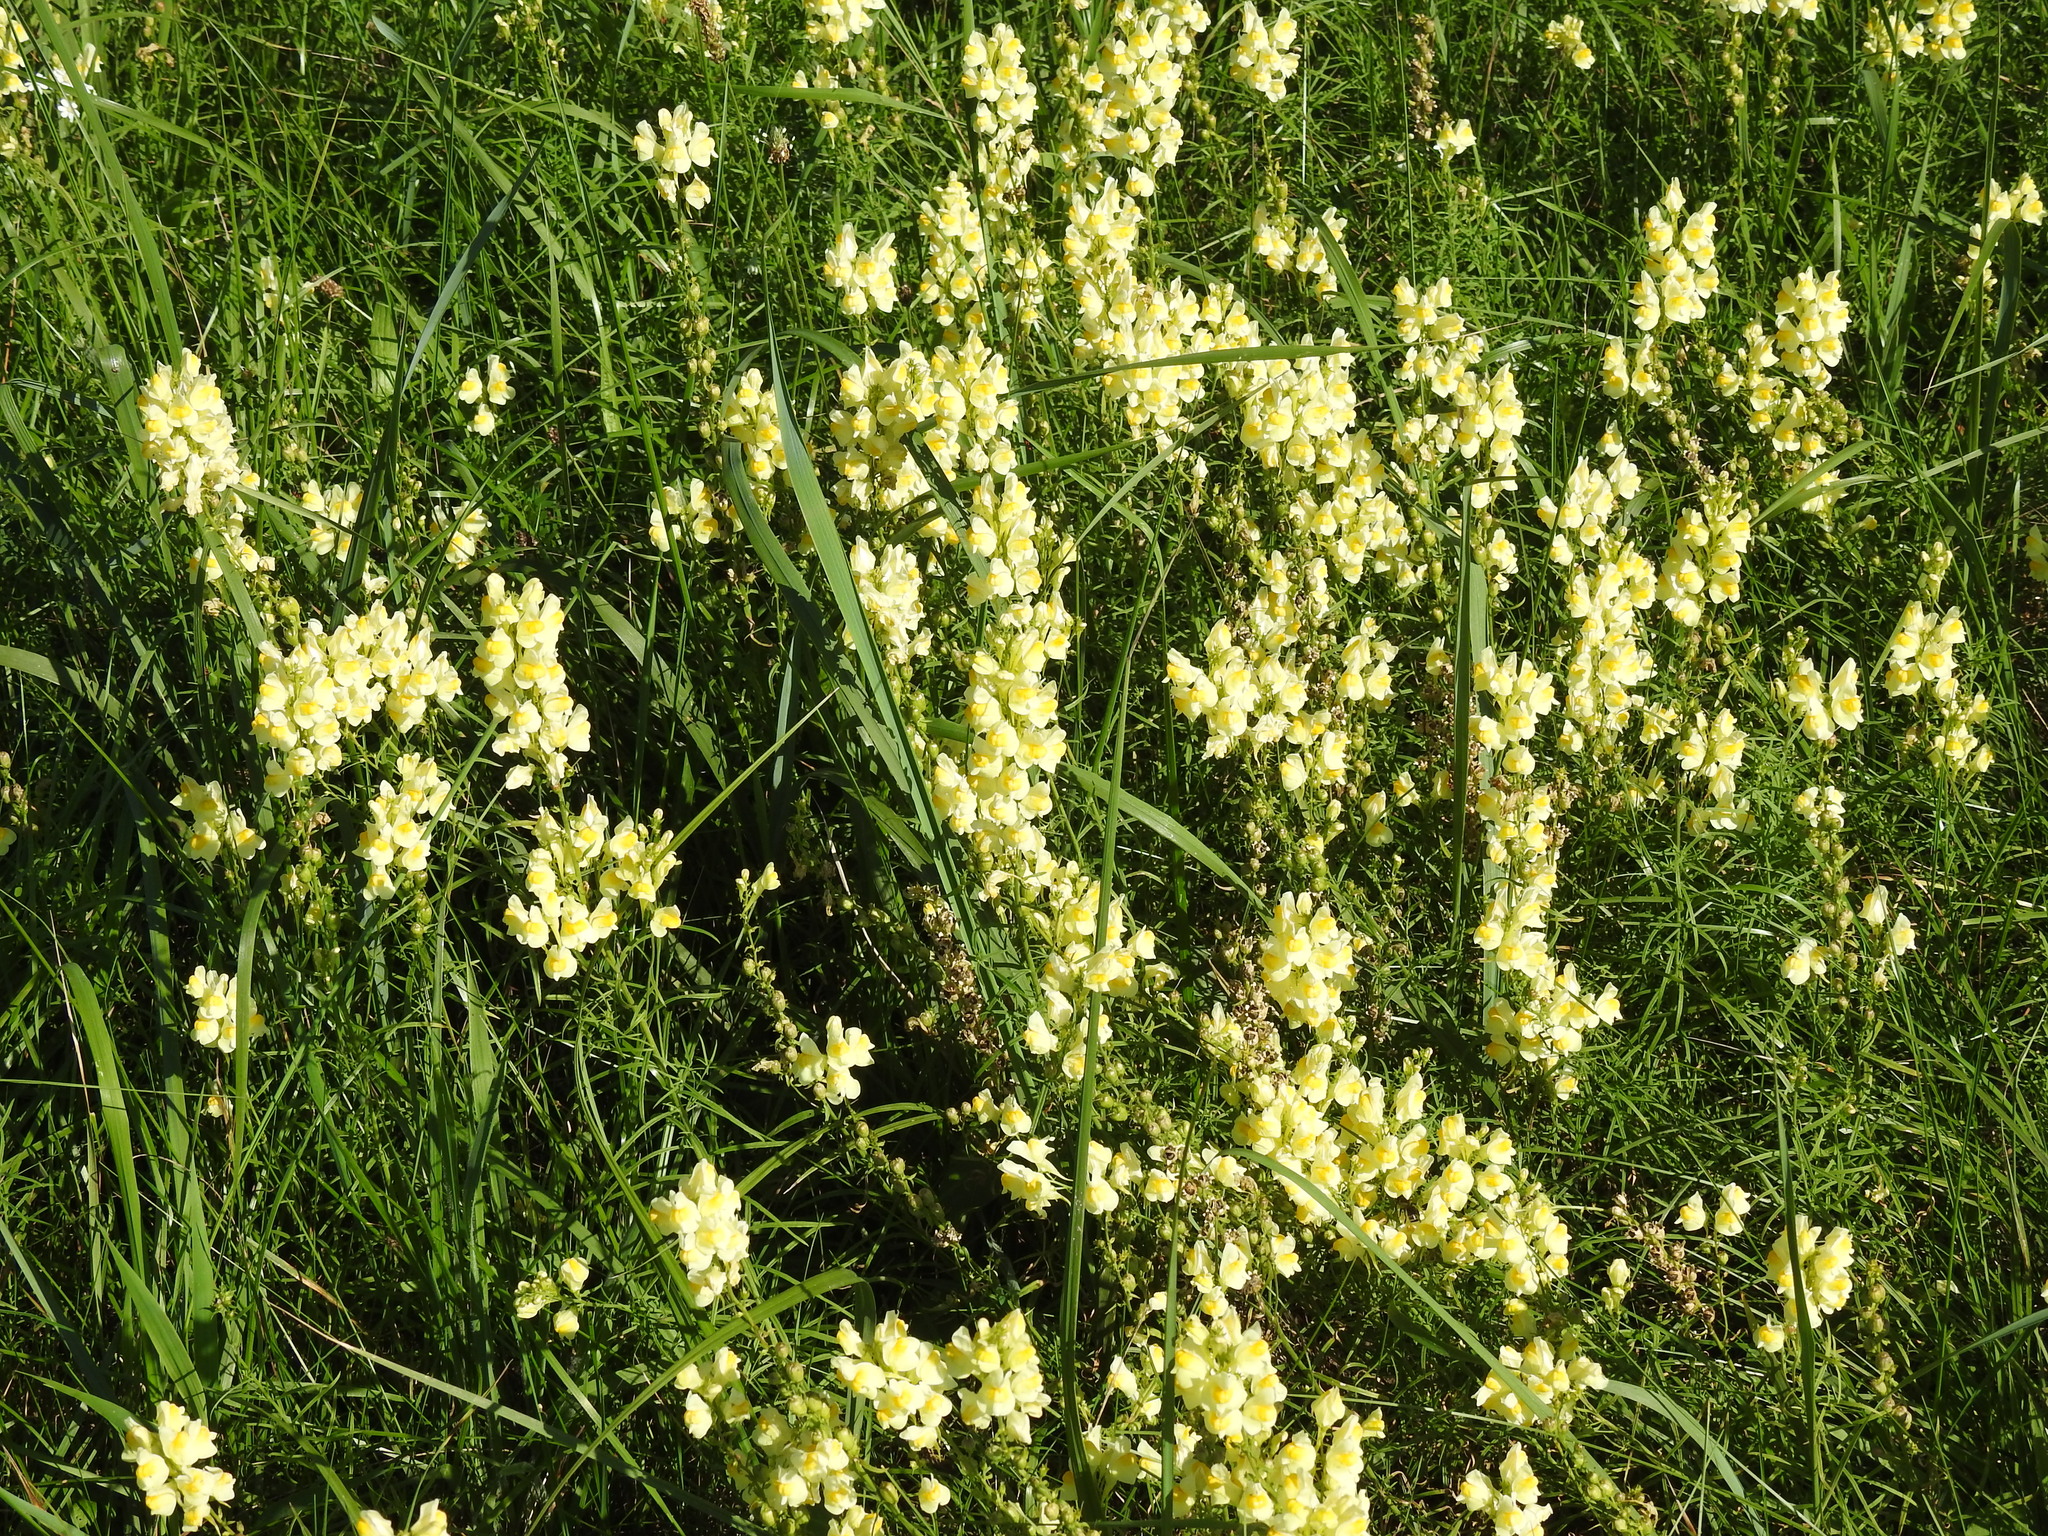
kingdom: Plantae
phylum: Tracheophyta
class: Magnoliopsida
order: Lamiales
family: Plantaginaceae
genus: Linaria
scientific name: Linaria vulgaris
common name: Butter and eggs
